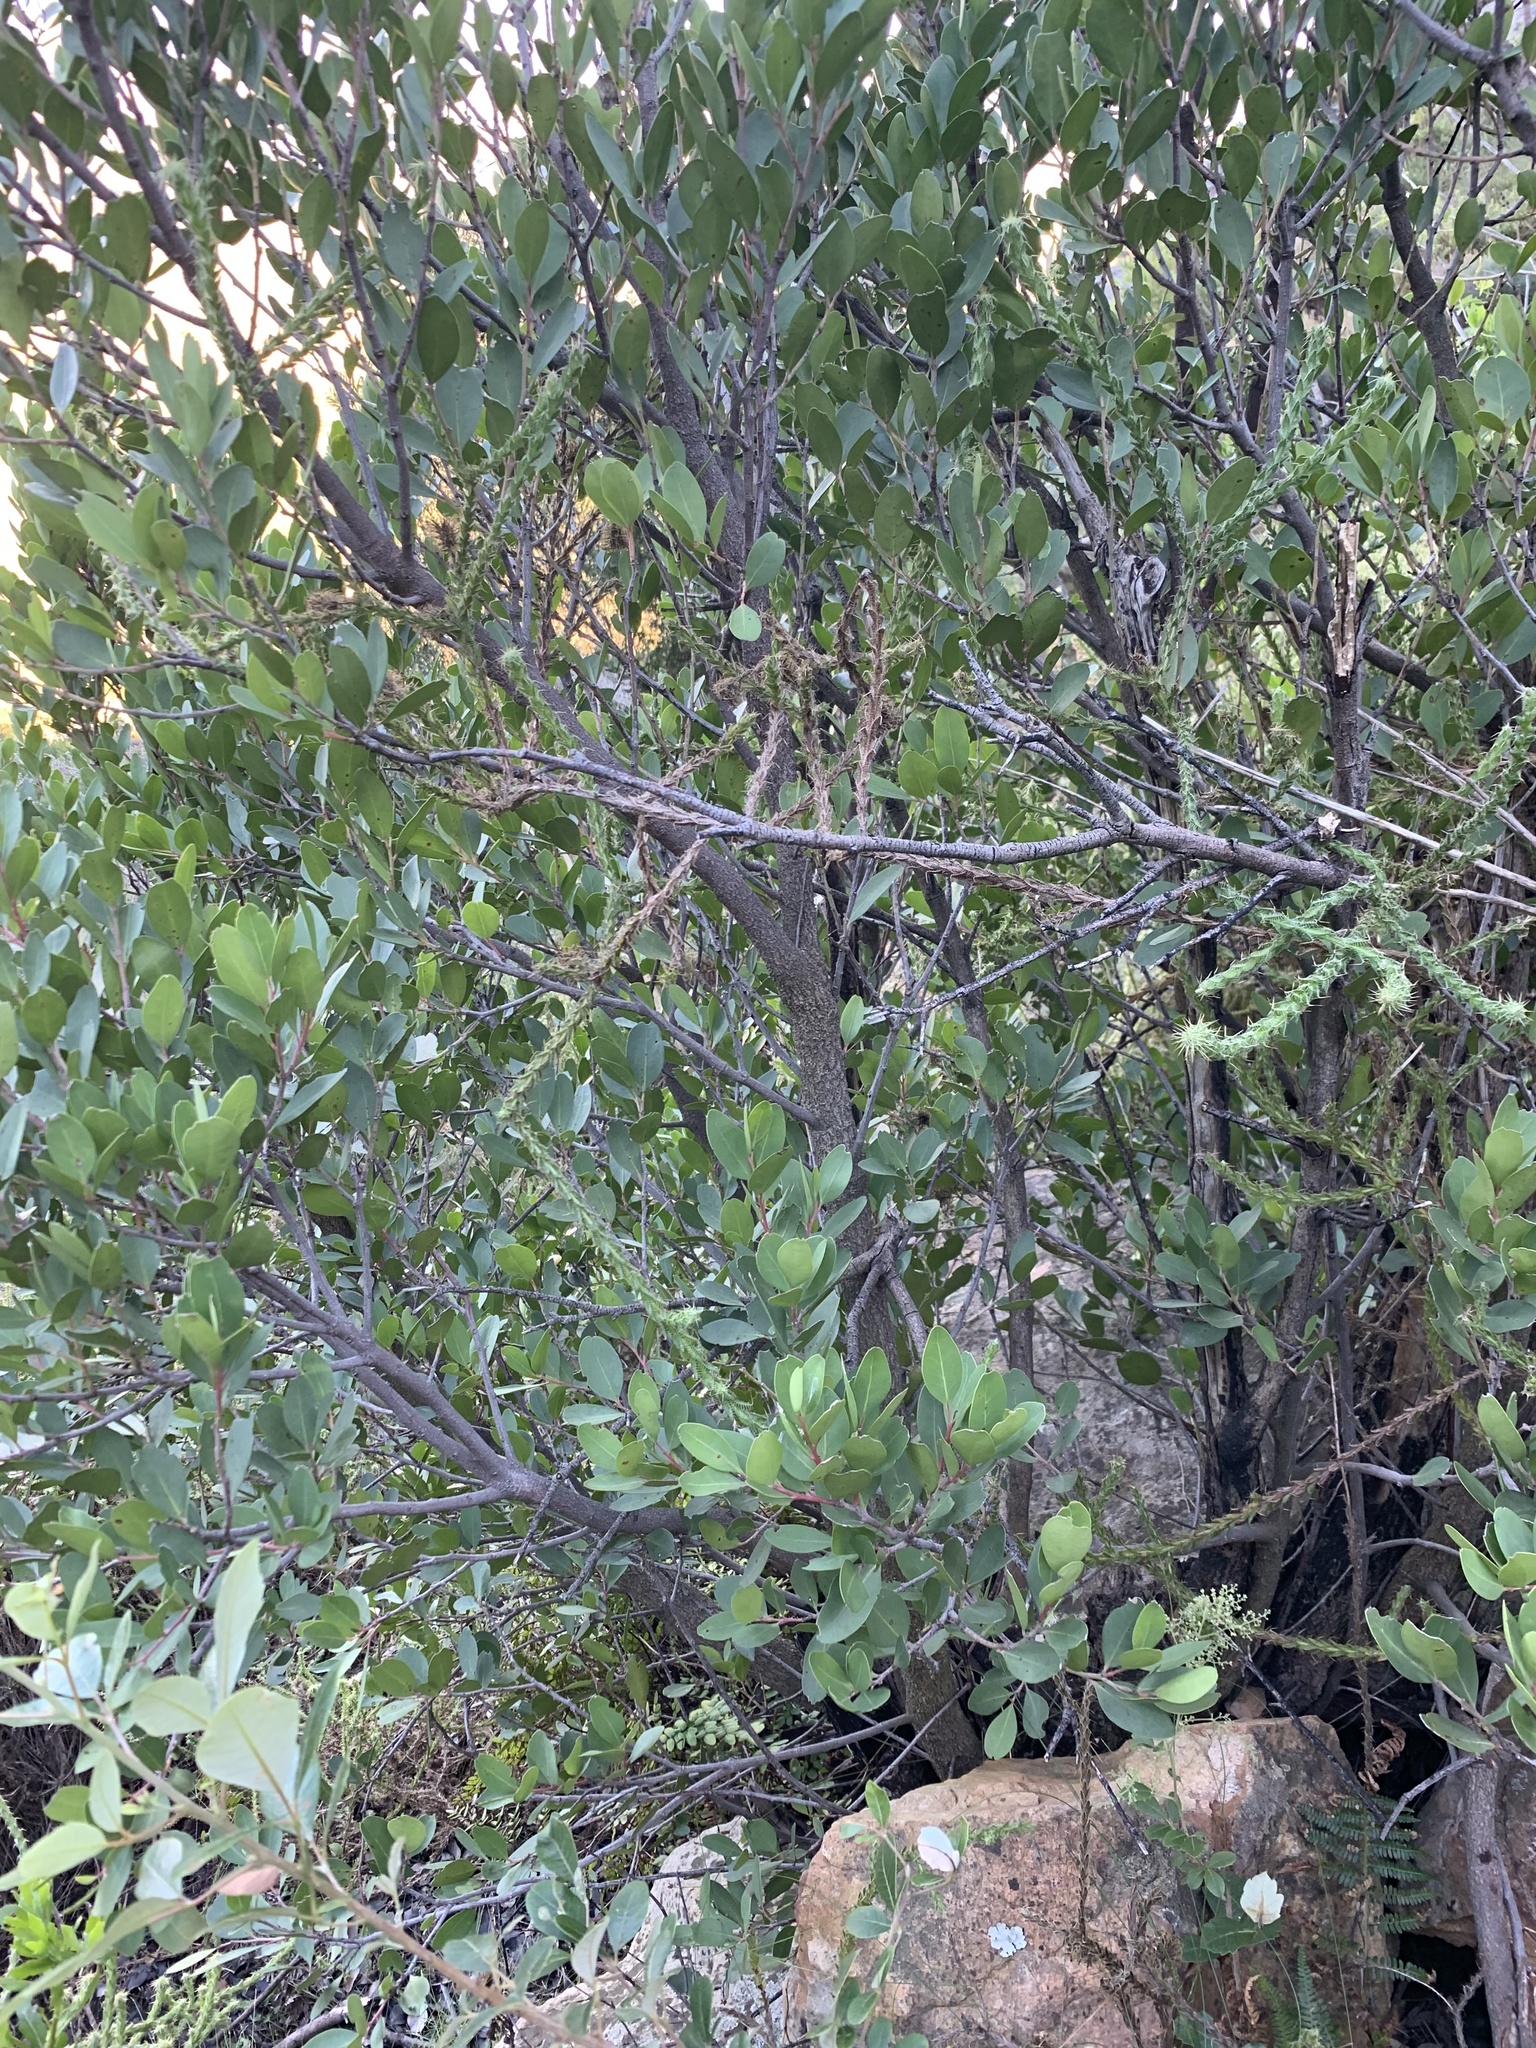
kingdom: Plantae
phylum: Tracheophyta
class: Magnoliopsida
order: Celastrales
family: Celastraceae
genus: Gymnosporia
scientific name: Gymnosporia laurina
